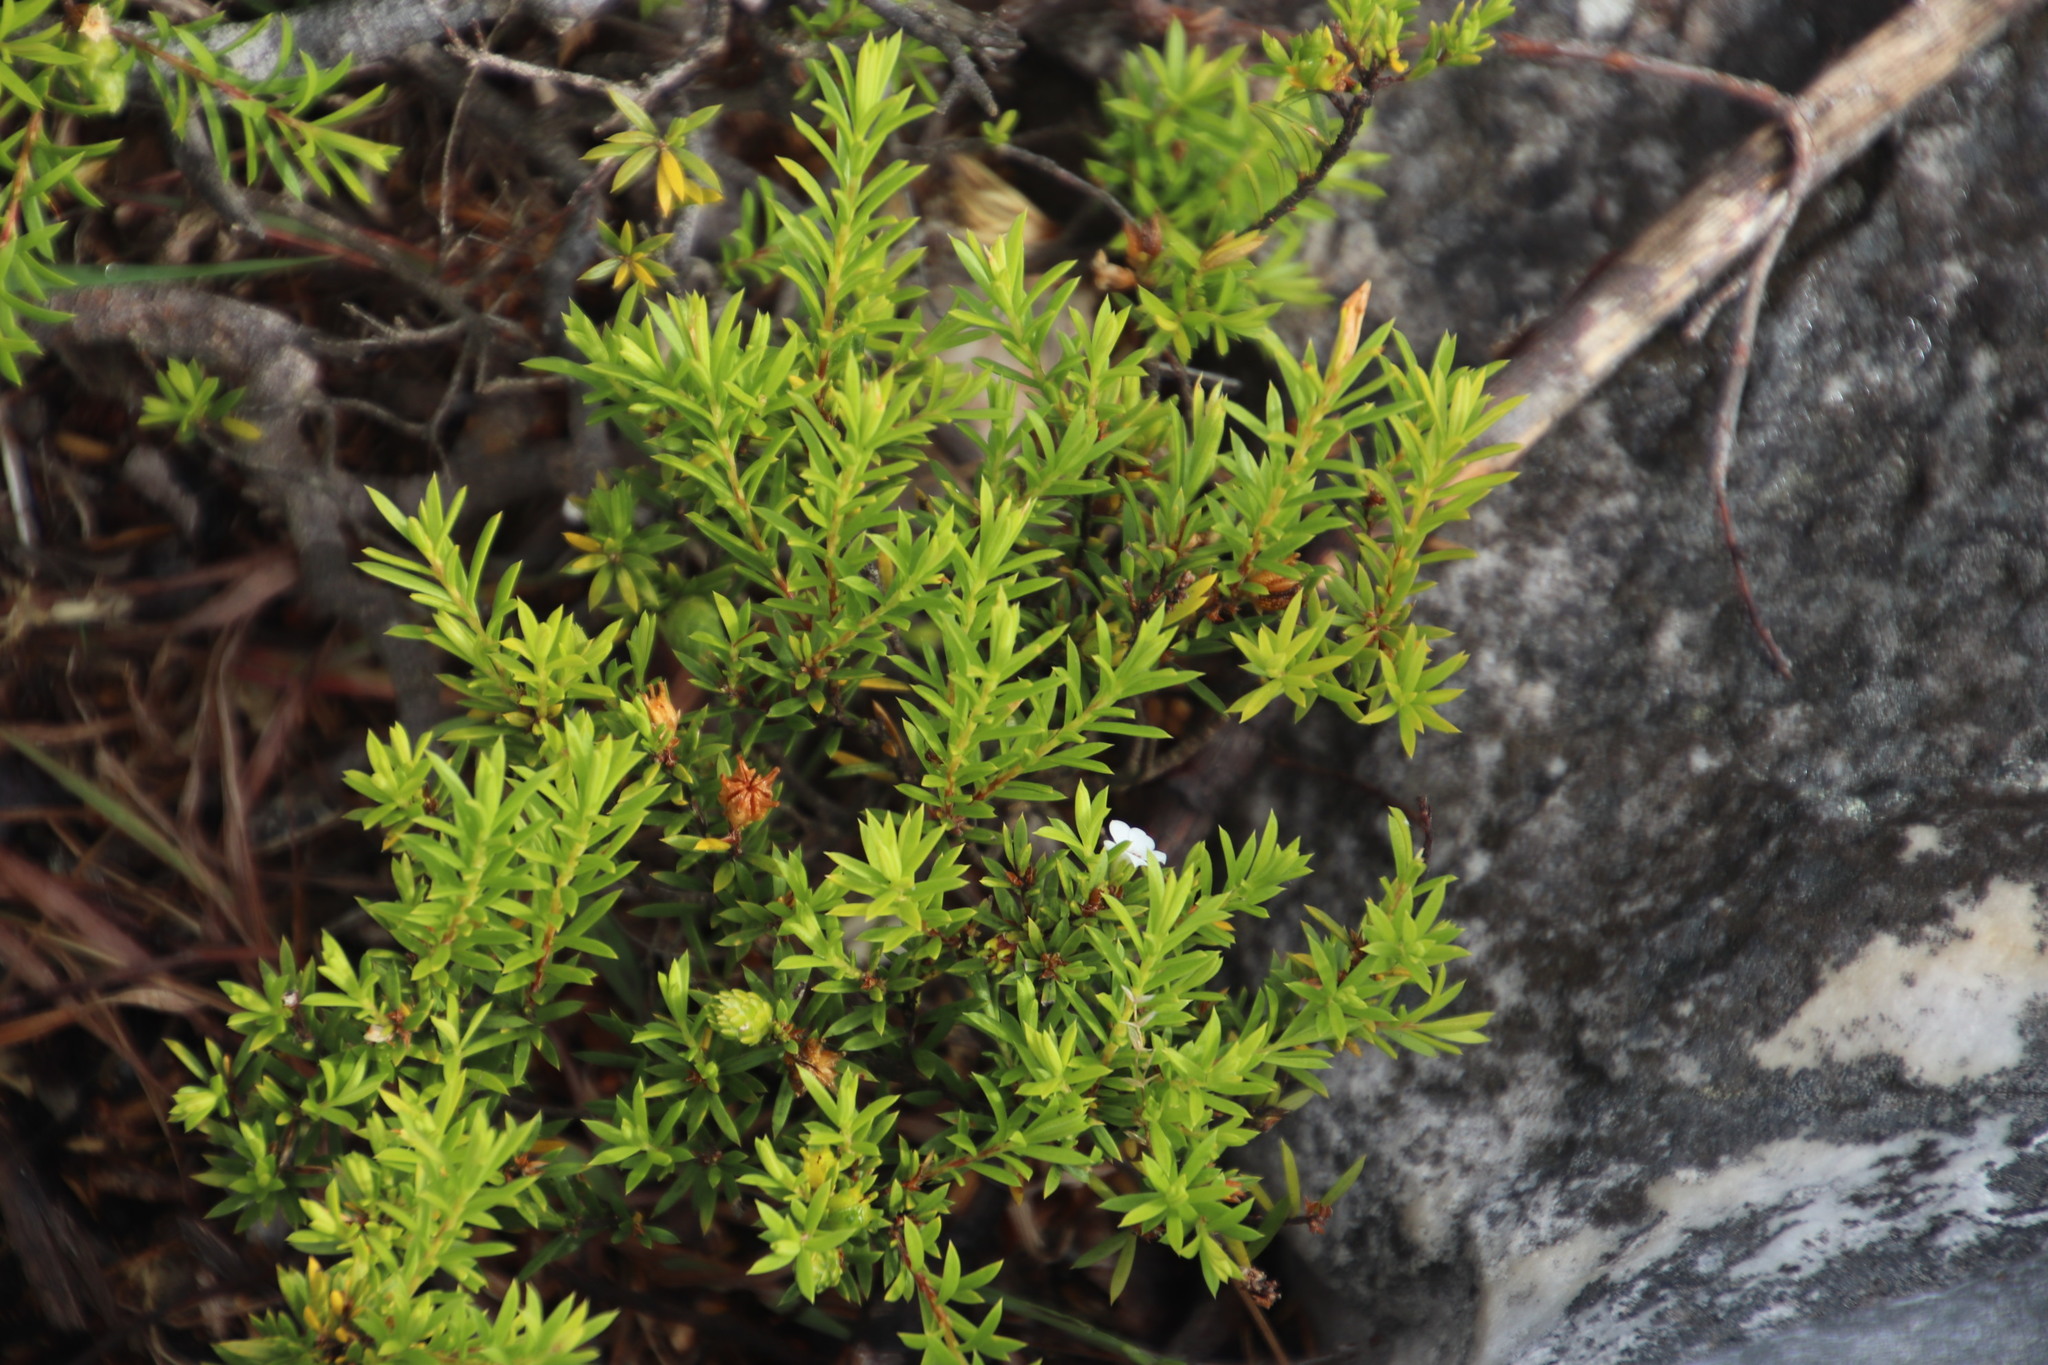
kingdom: Plantae
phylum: Tracheophyta
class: Magnoliopsida
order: Sapindales
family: Rutaceae
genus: Coleonema
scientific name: Coleonema album
